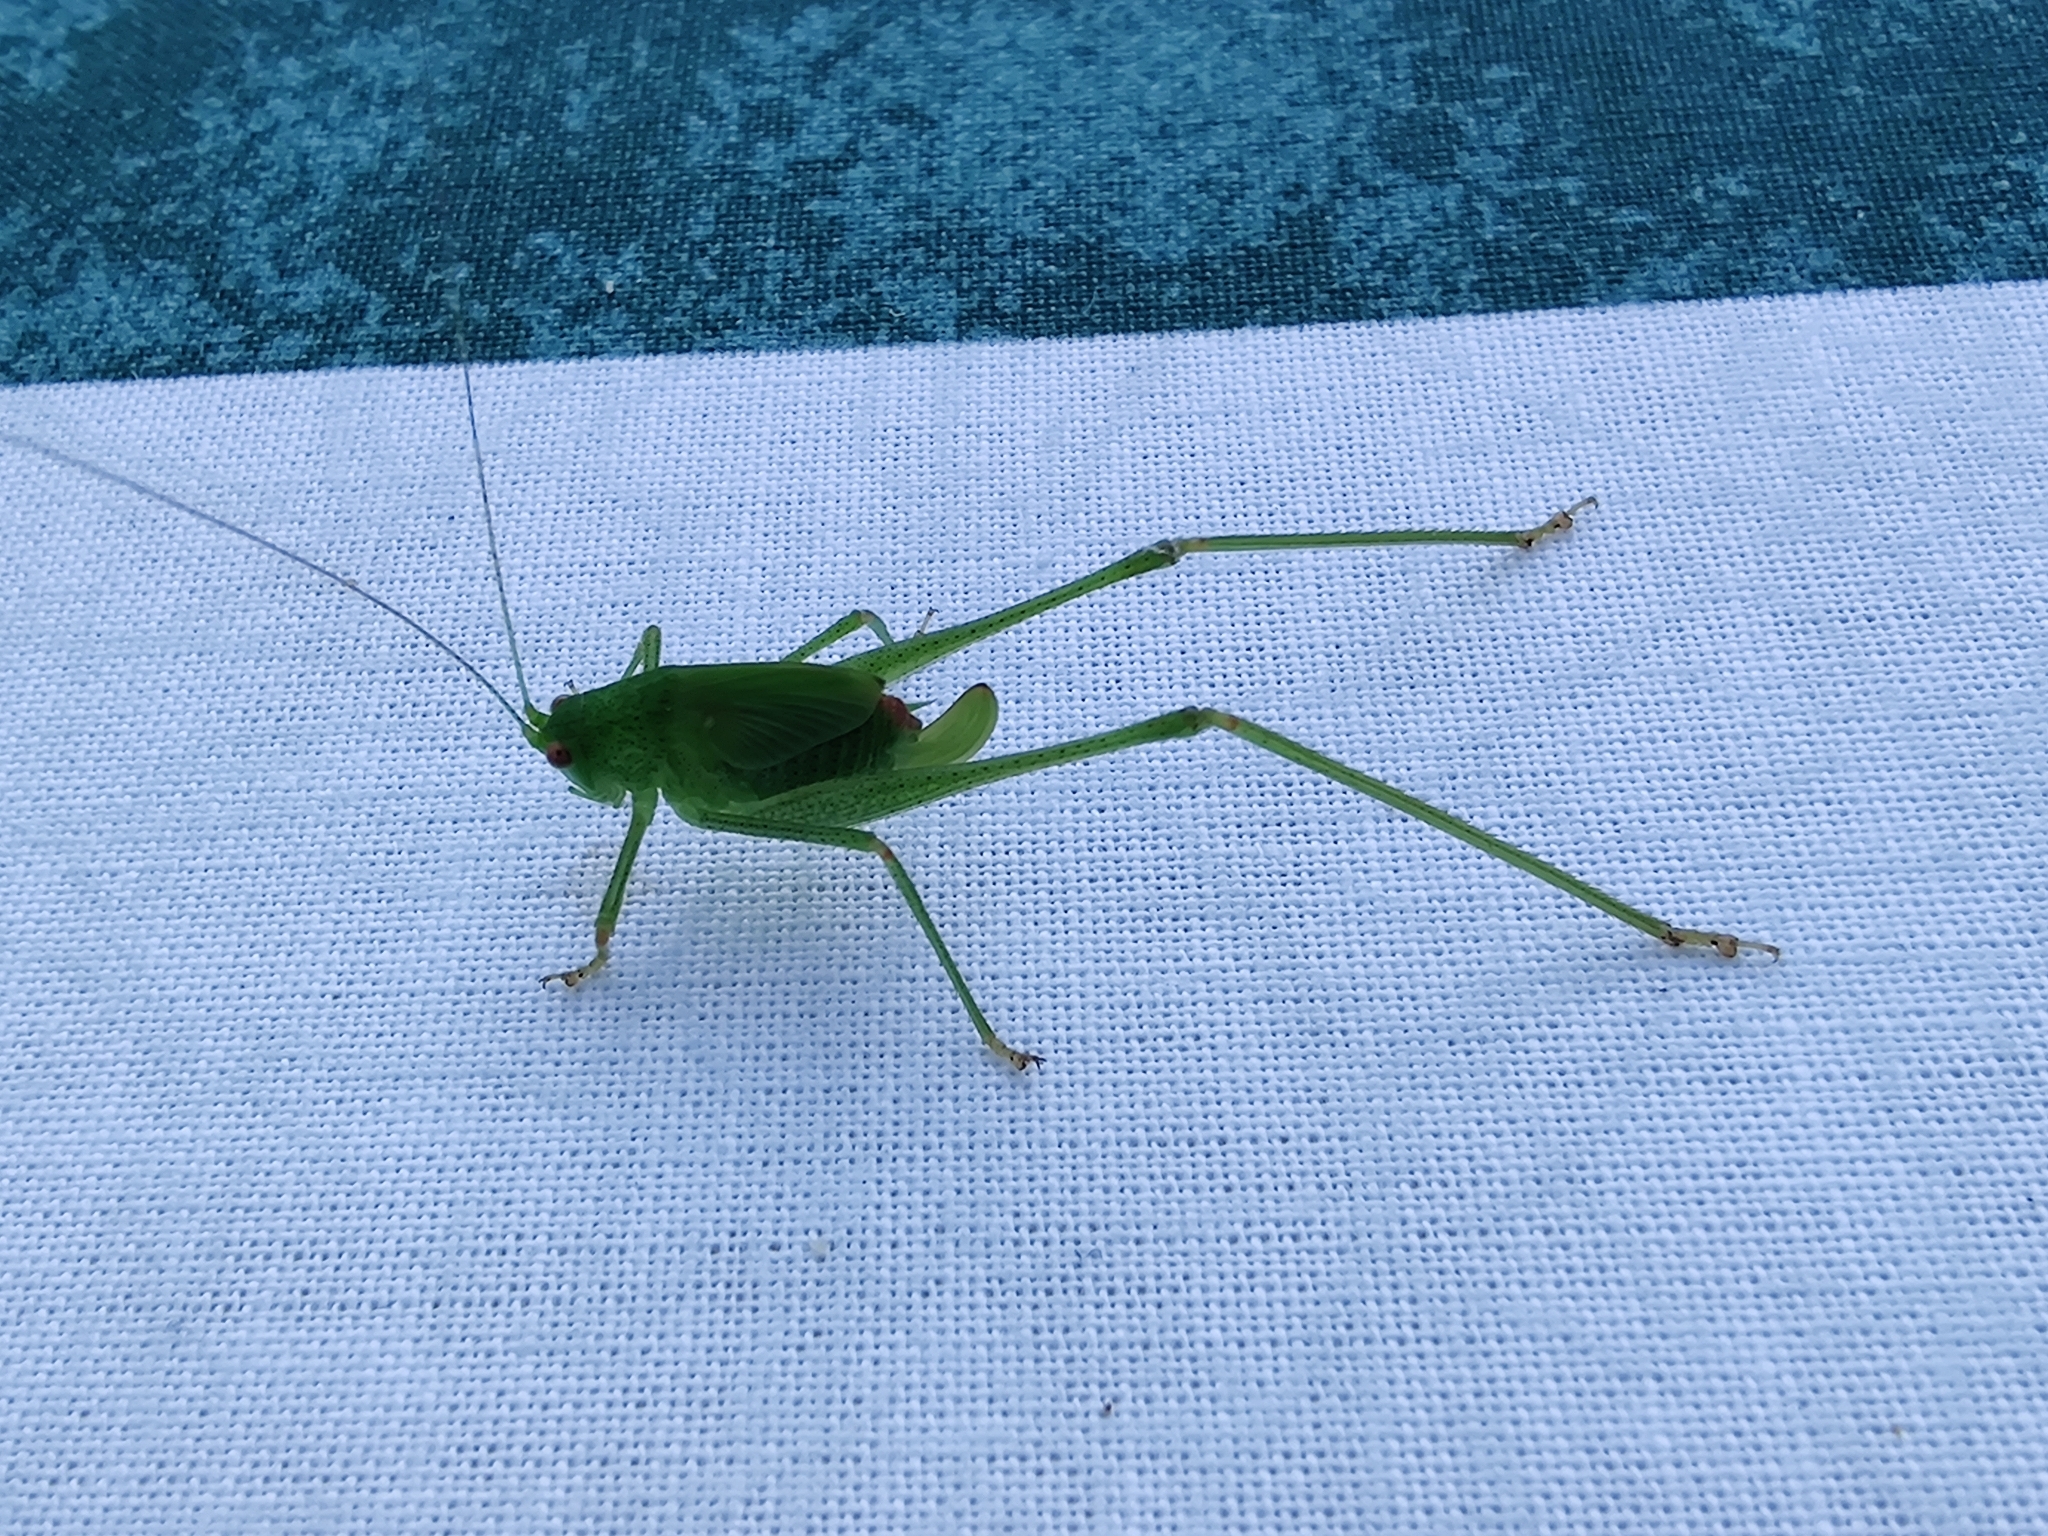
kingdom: Animalia
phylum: Arthropoda
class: Insecta
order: Orthoptera
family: Tettigoniidae
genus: Phaneroptera
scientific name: Phaneroptera nana
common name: Southern sickle bush-cricket
